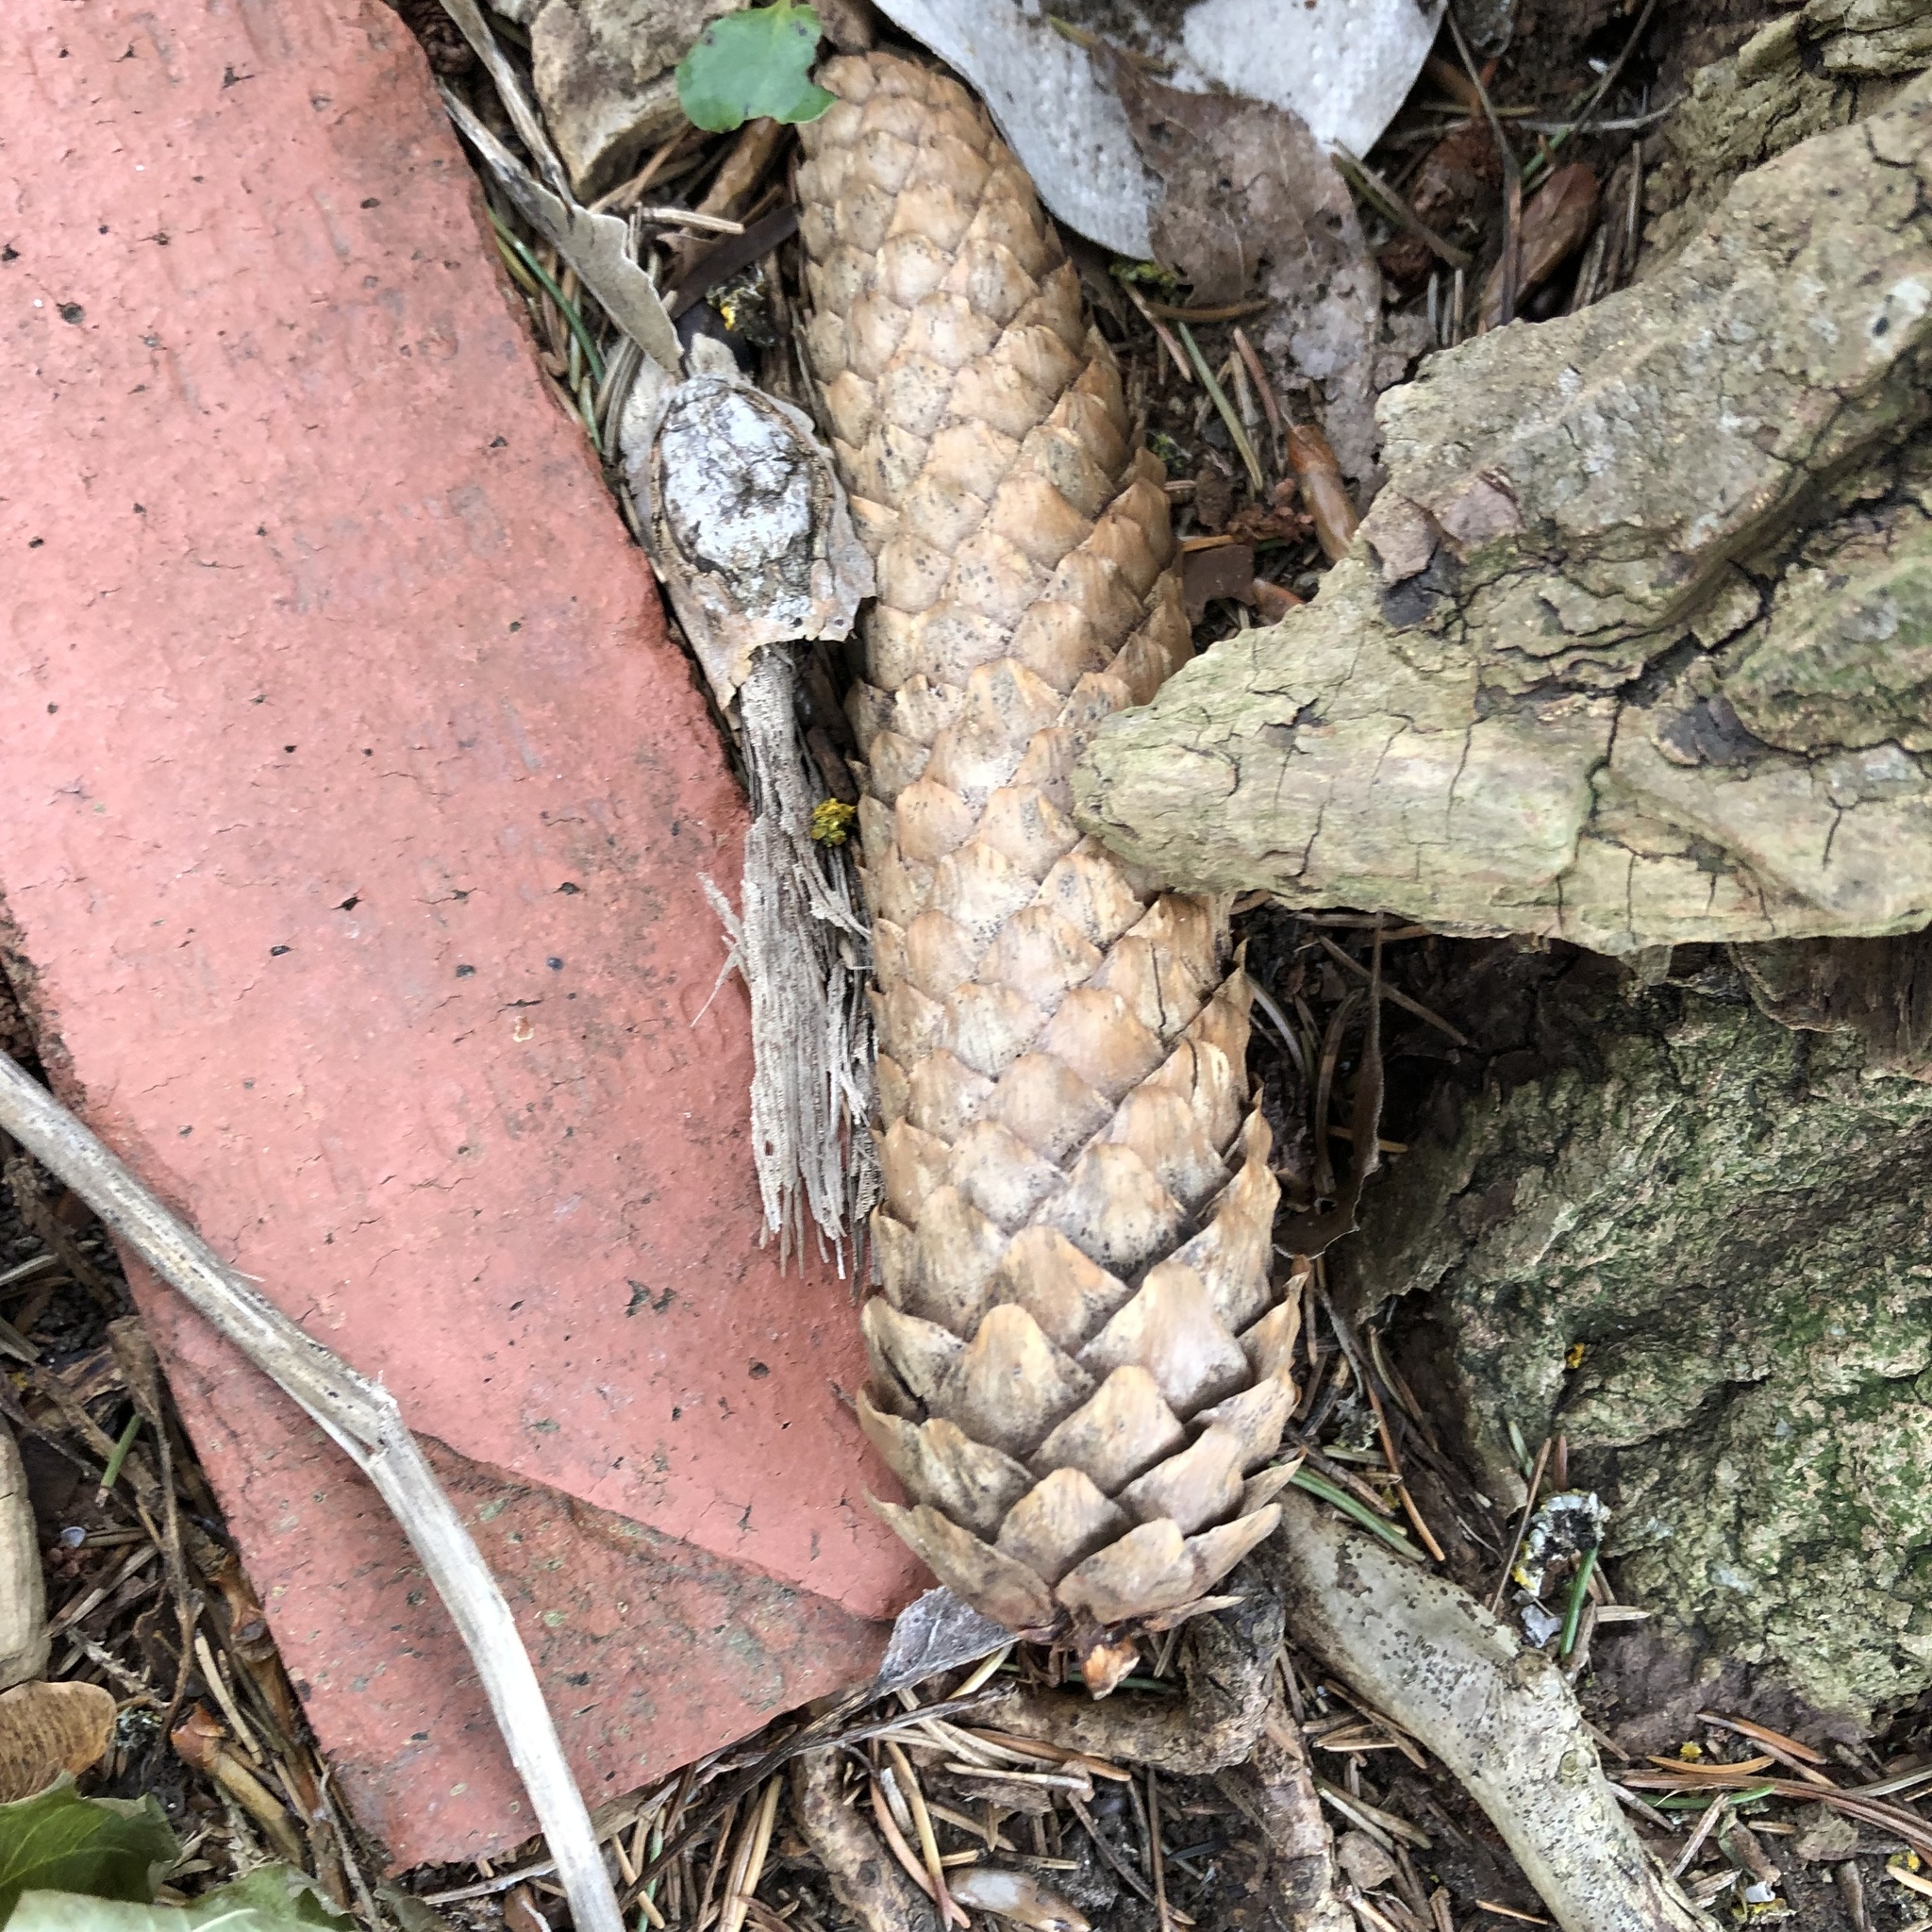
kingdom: Plantae
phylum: Tracheophyta
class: Pinopsida
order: Pinales
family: Pinaceae
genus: Picea
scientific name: Picea abies
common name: Norway spruce
